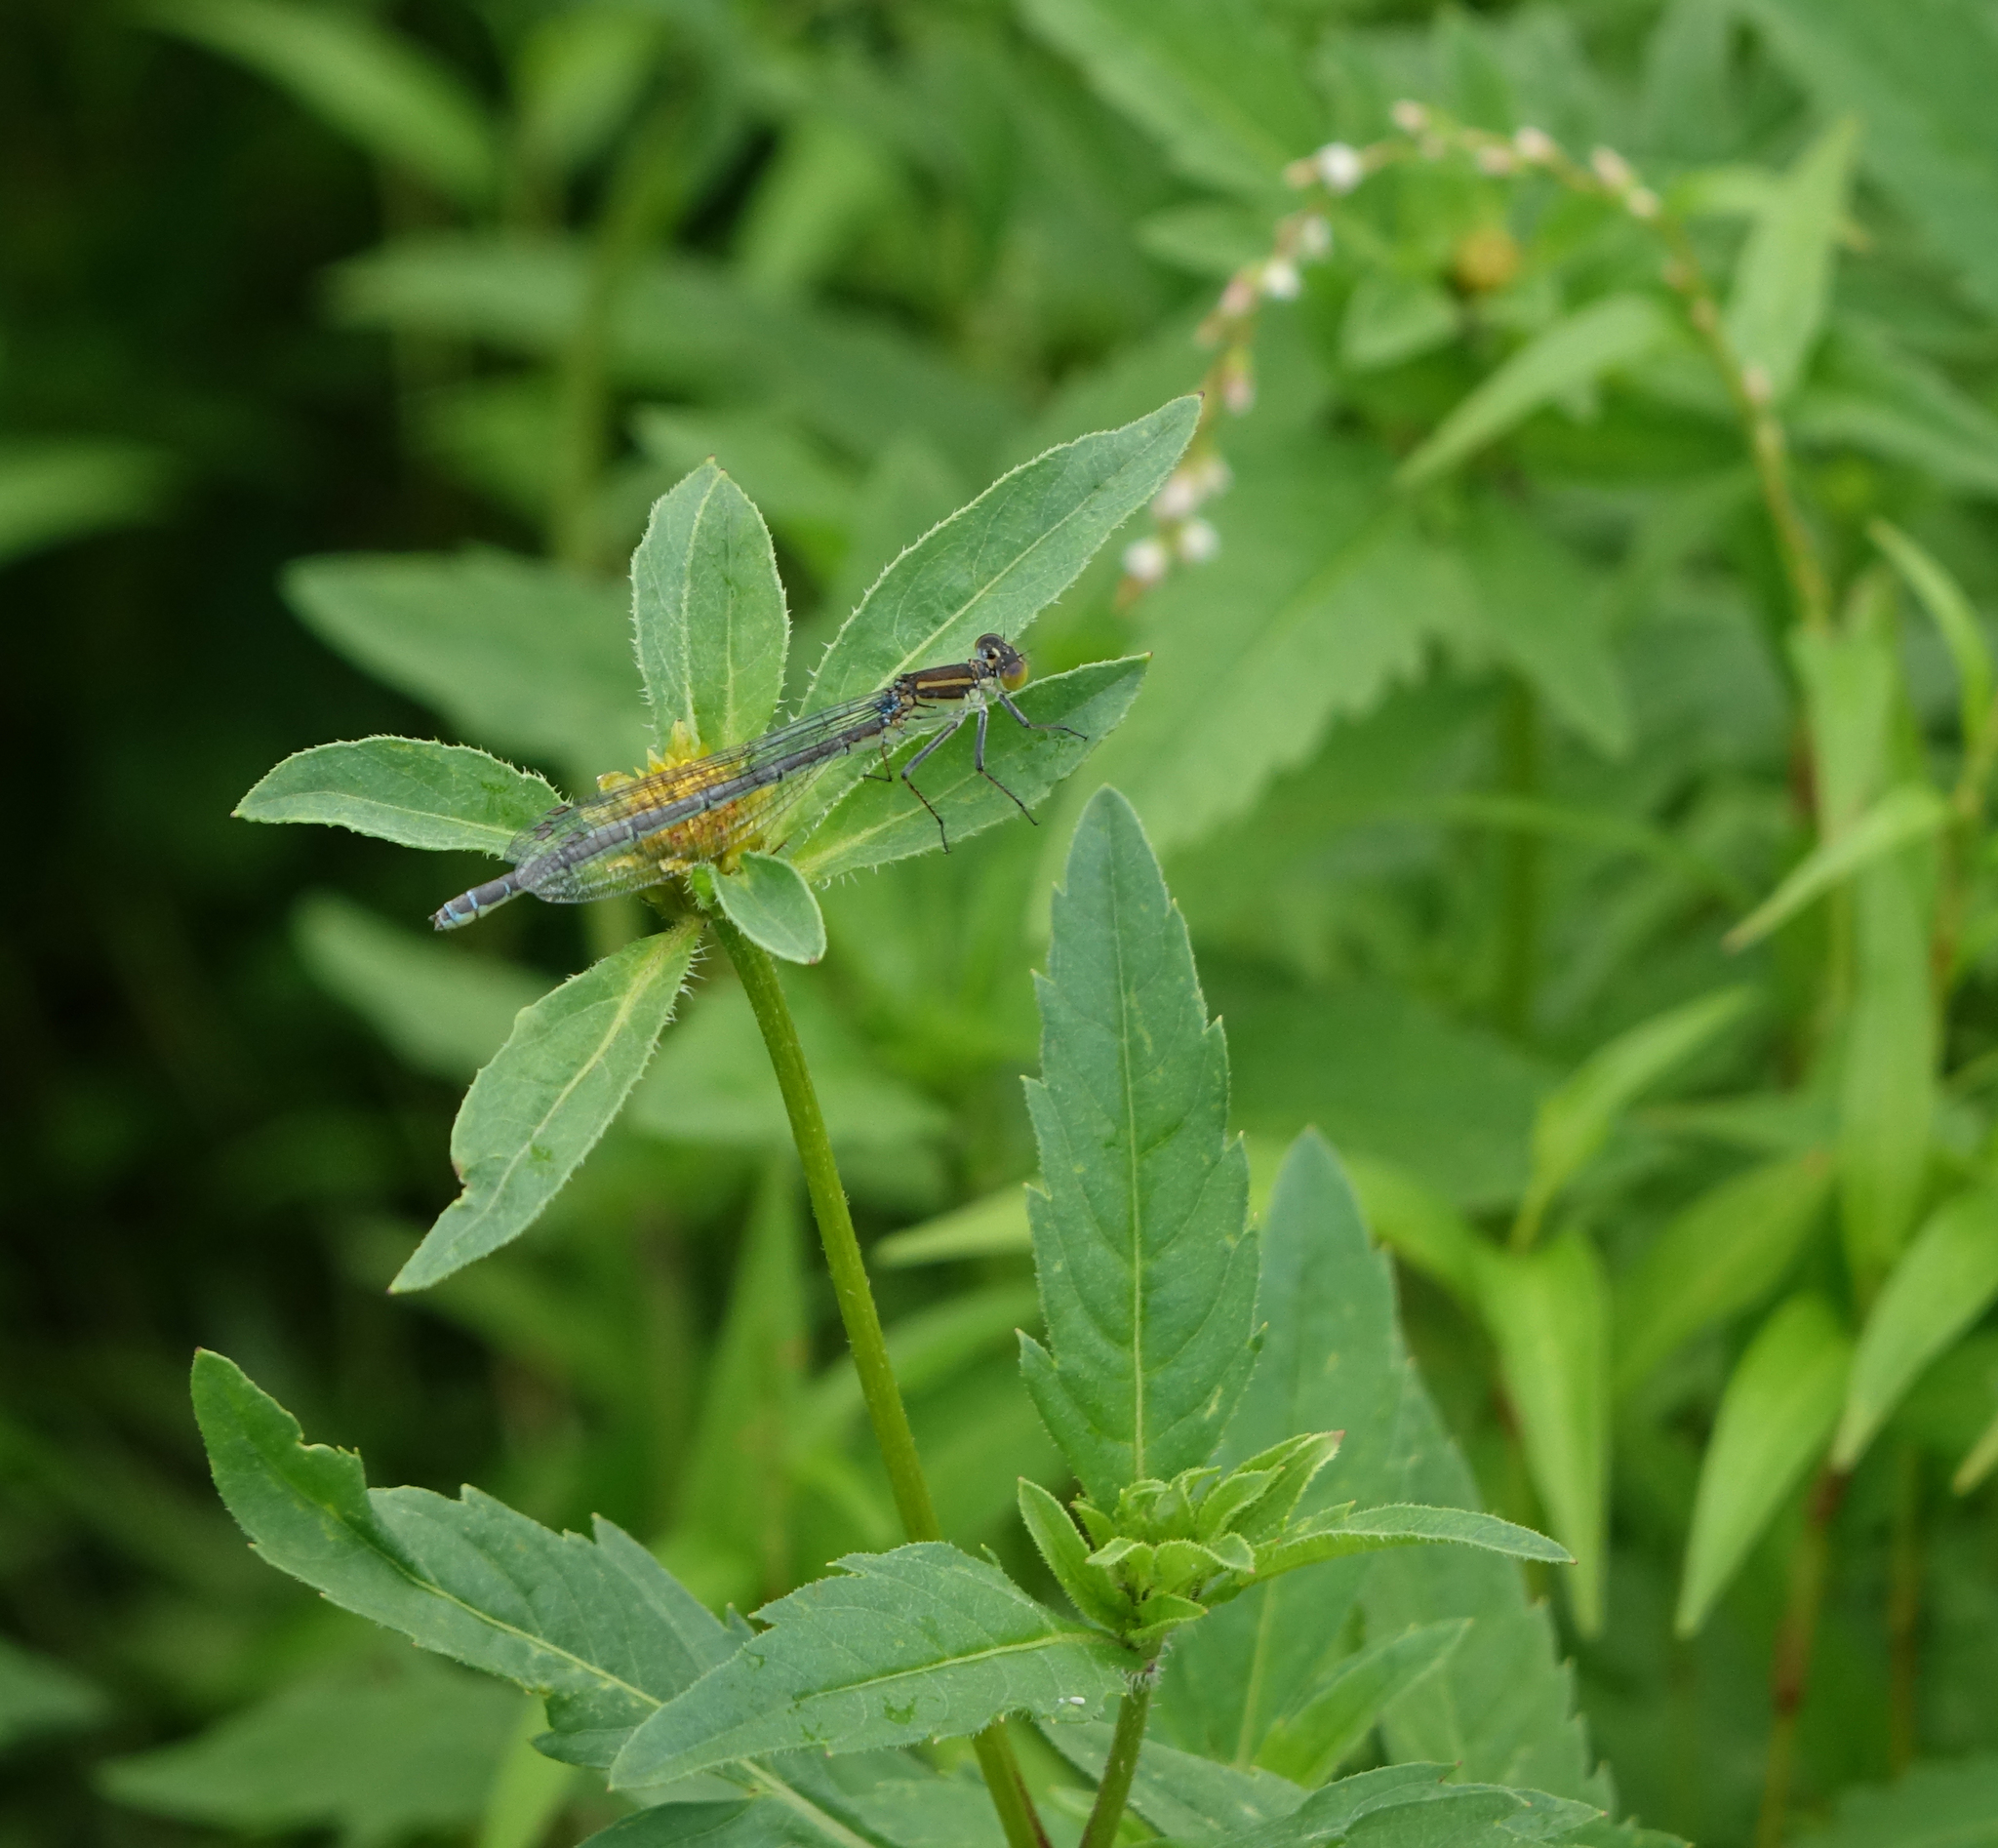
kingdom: Plantae
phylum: Tracheophyta
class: Magnoliopsida
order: Asterales
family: Asteraceae
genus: Bidens
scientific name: Bidens tripartita
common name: Trifid bur-marigold
